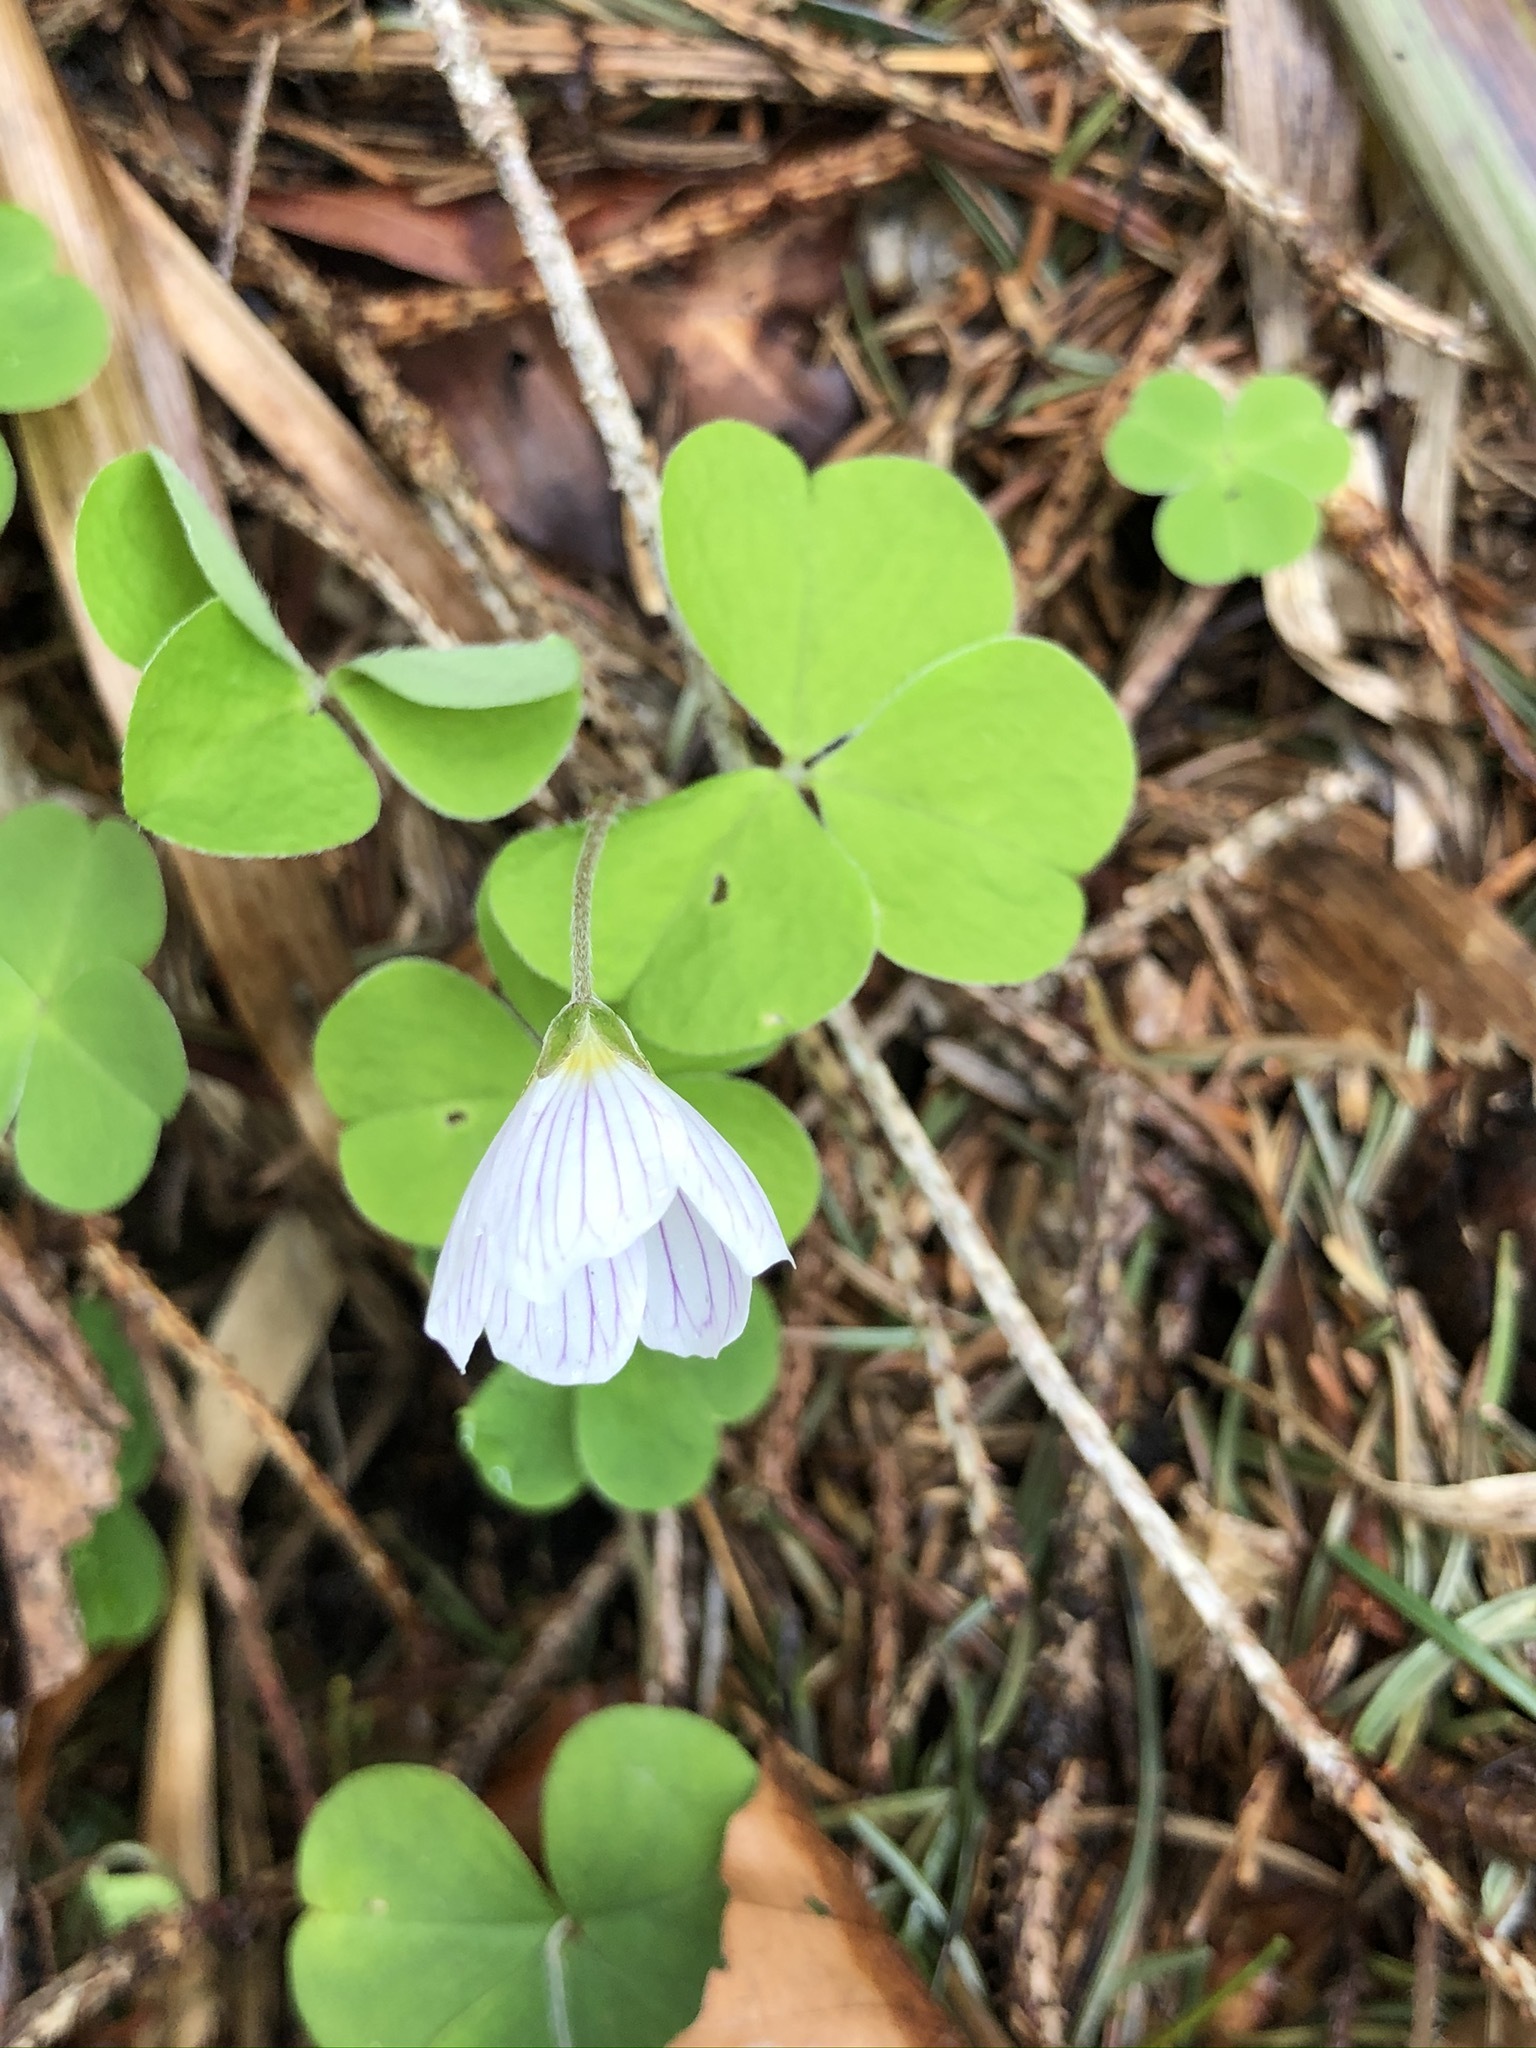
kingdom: Plantae
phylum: Tracheophyta
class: Magnoliopsida
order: Oxalidales
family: Oxalidaceae
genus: Oxalis
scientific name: Oxalis acetosella
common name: Wood-sorrel
